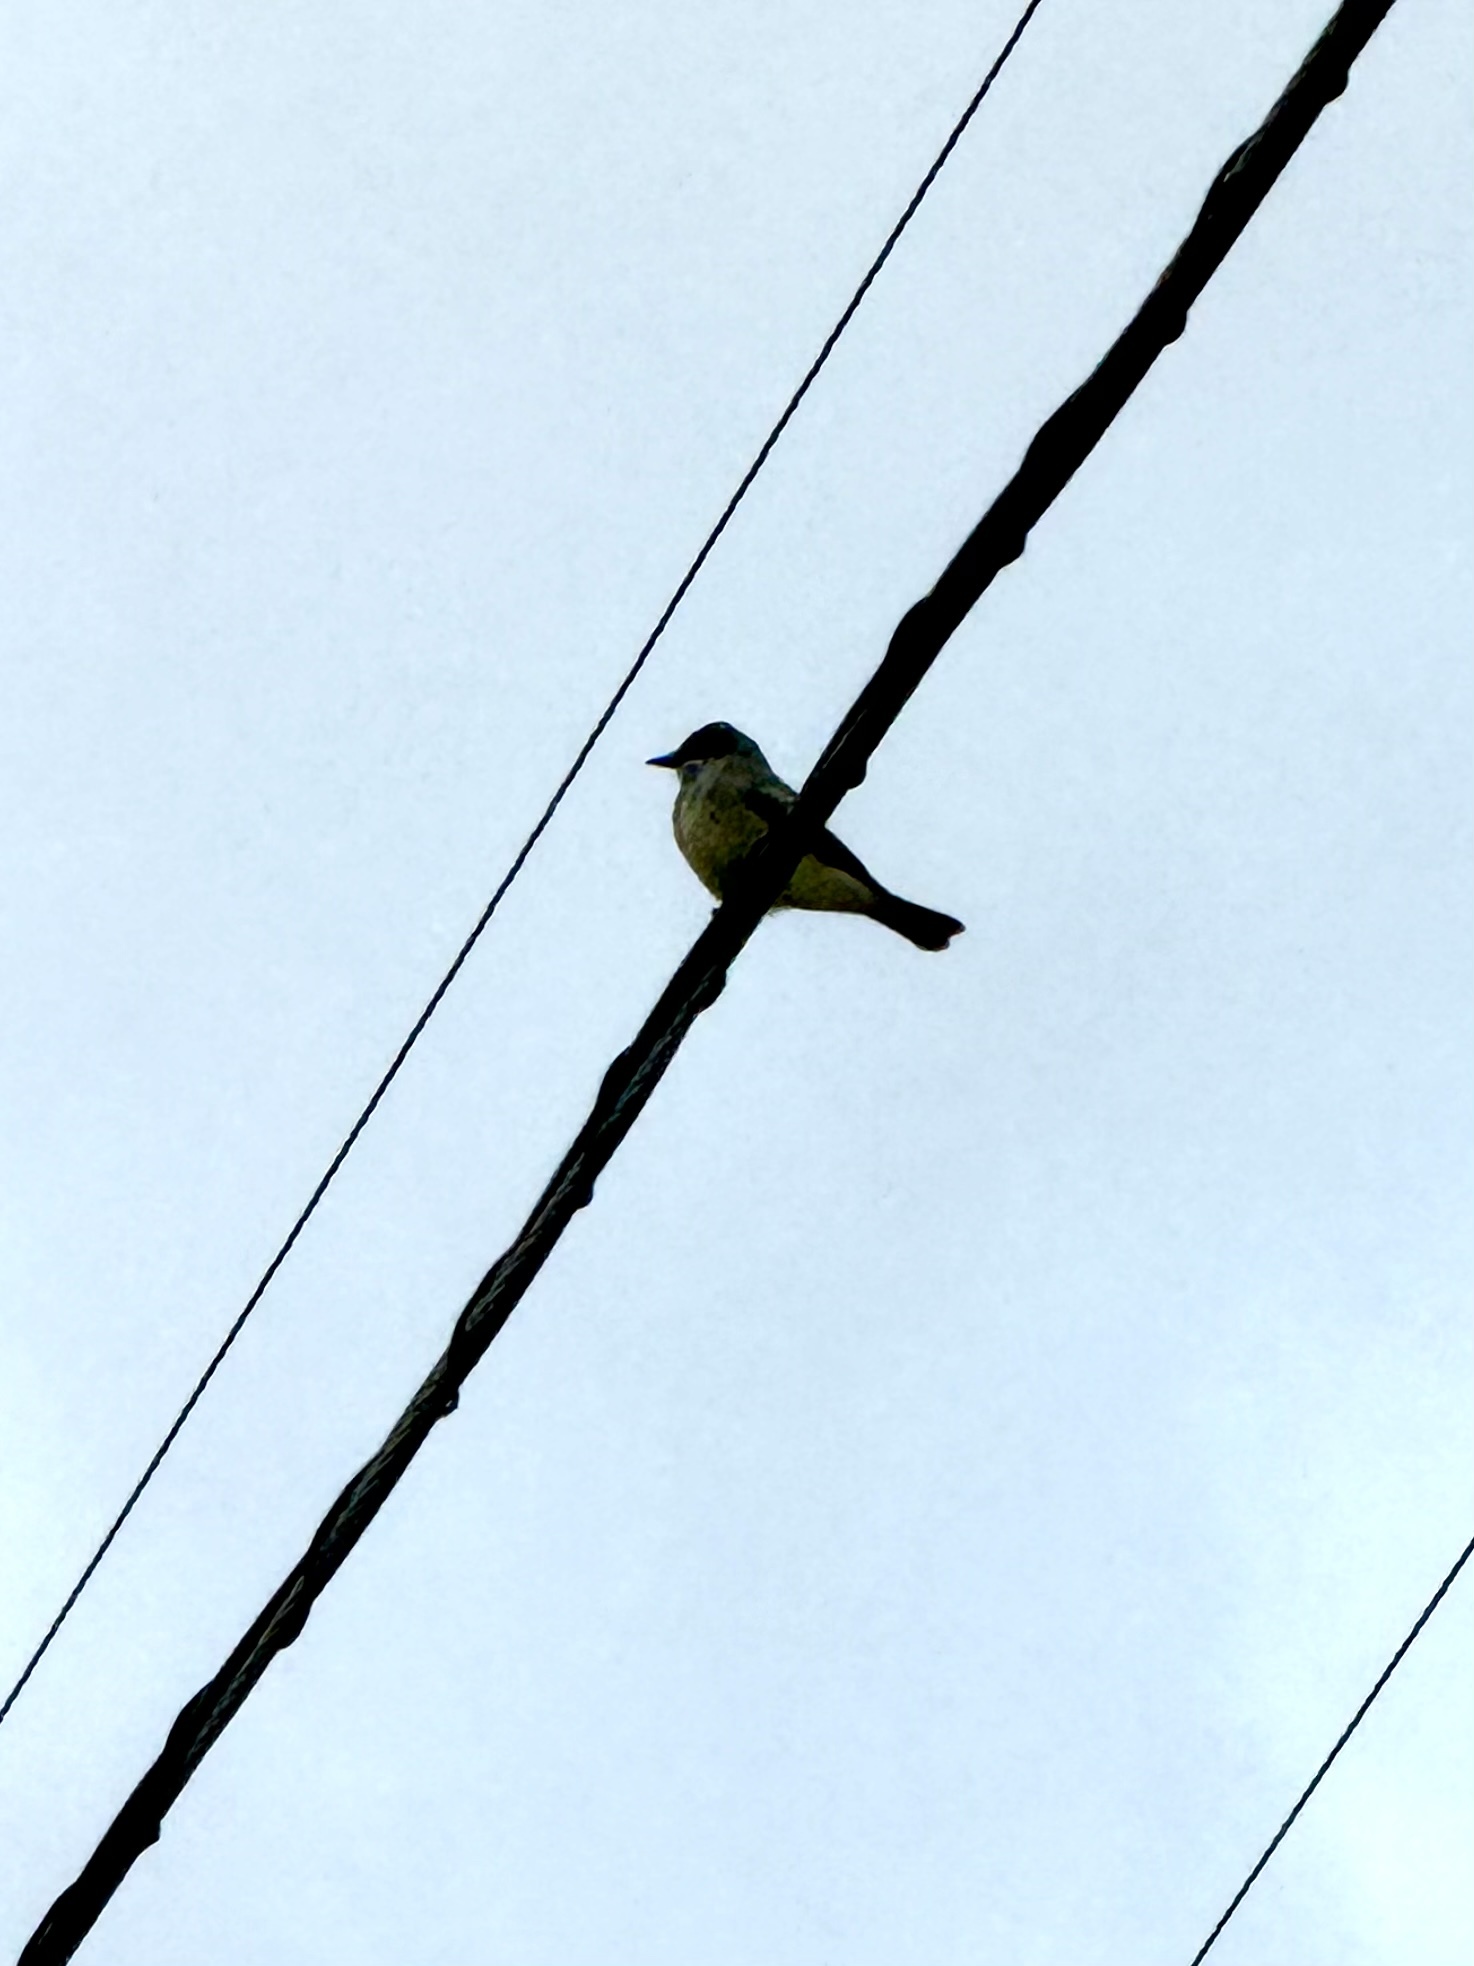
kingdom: Animalia
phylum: Chordata
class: Aves
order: Passeriformes
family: Tyrannidae
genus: Tyrannus
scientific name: Tyrannus vociferans
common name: Cassin's kingbird
